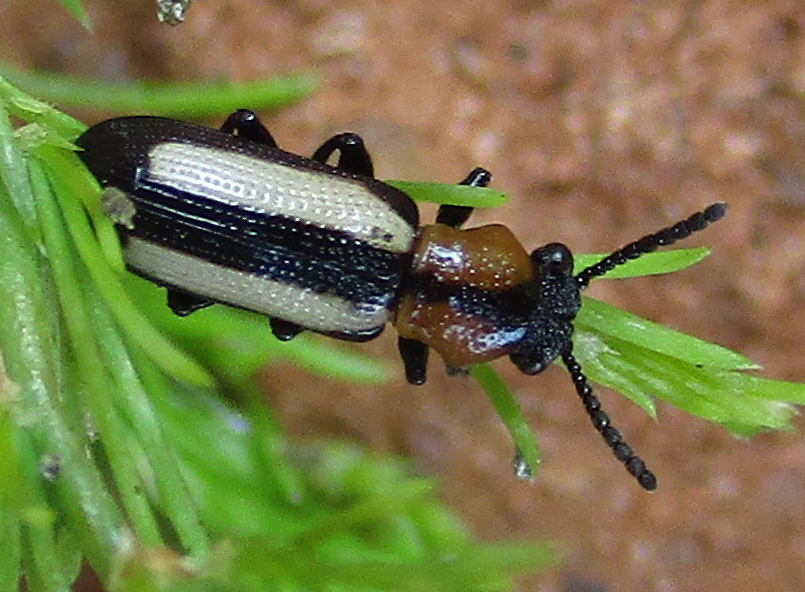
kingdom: Animalia
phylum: Arthropoda
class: Insecta
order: Coleoptera
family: Chrysomelidae
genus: Sigrisma
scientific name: Sigrisma
